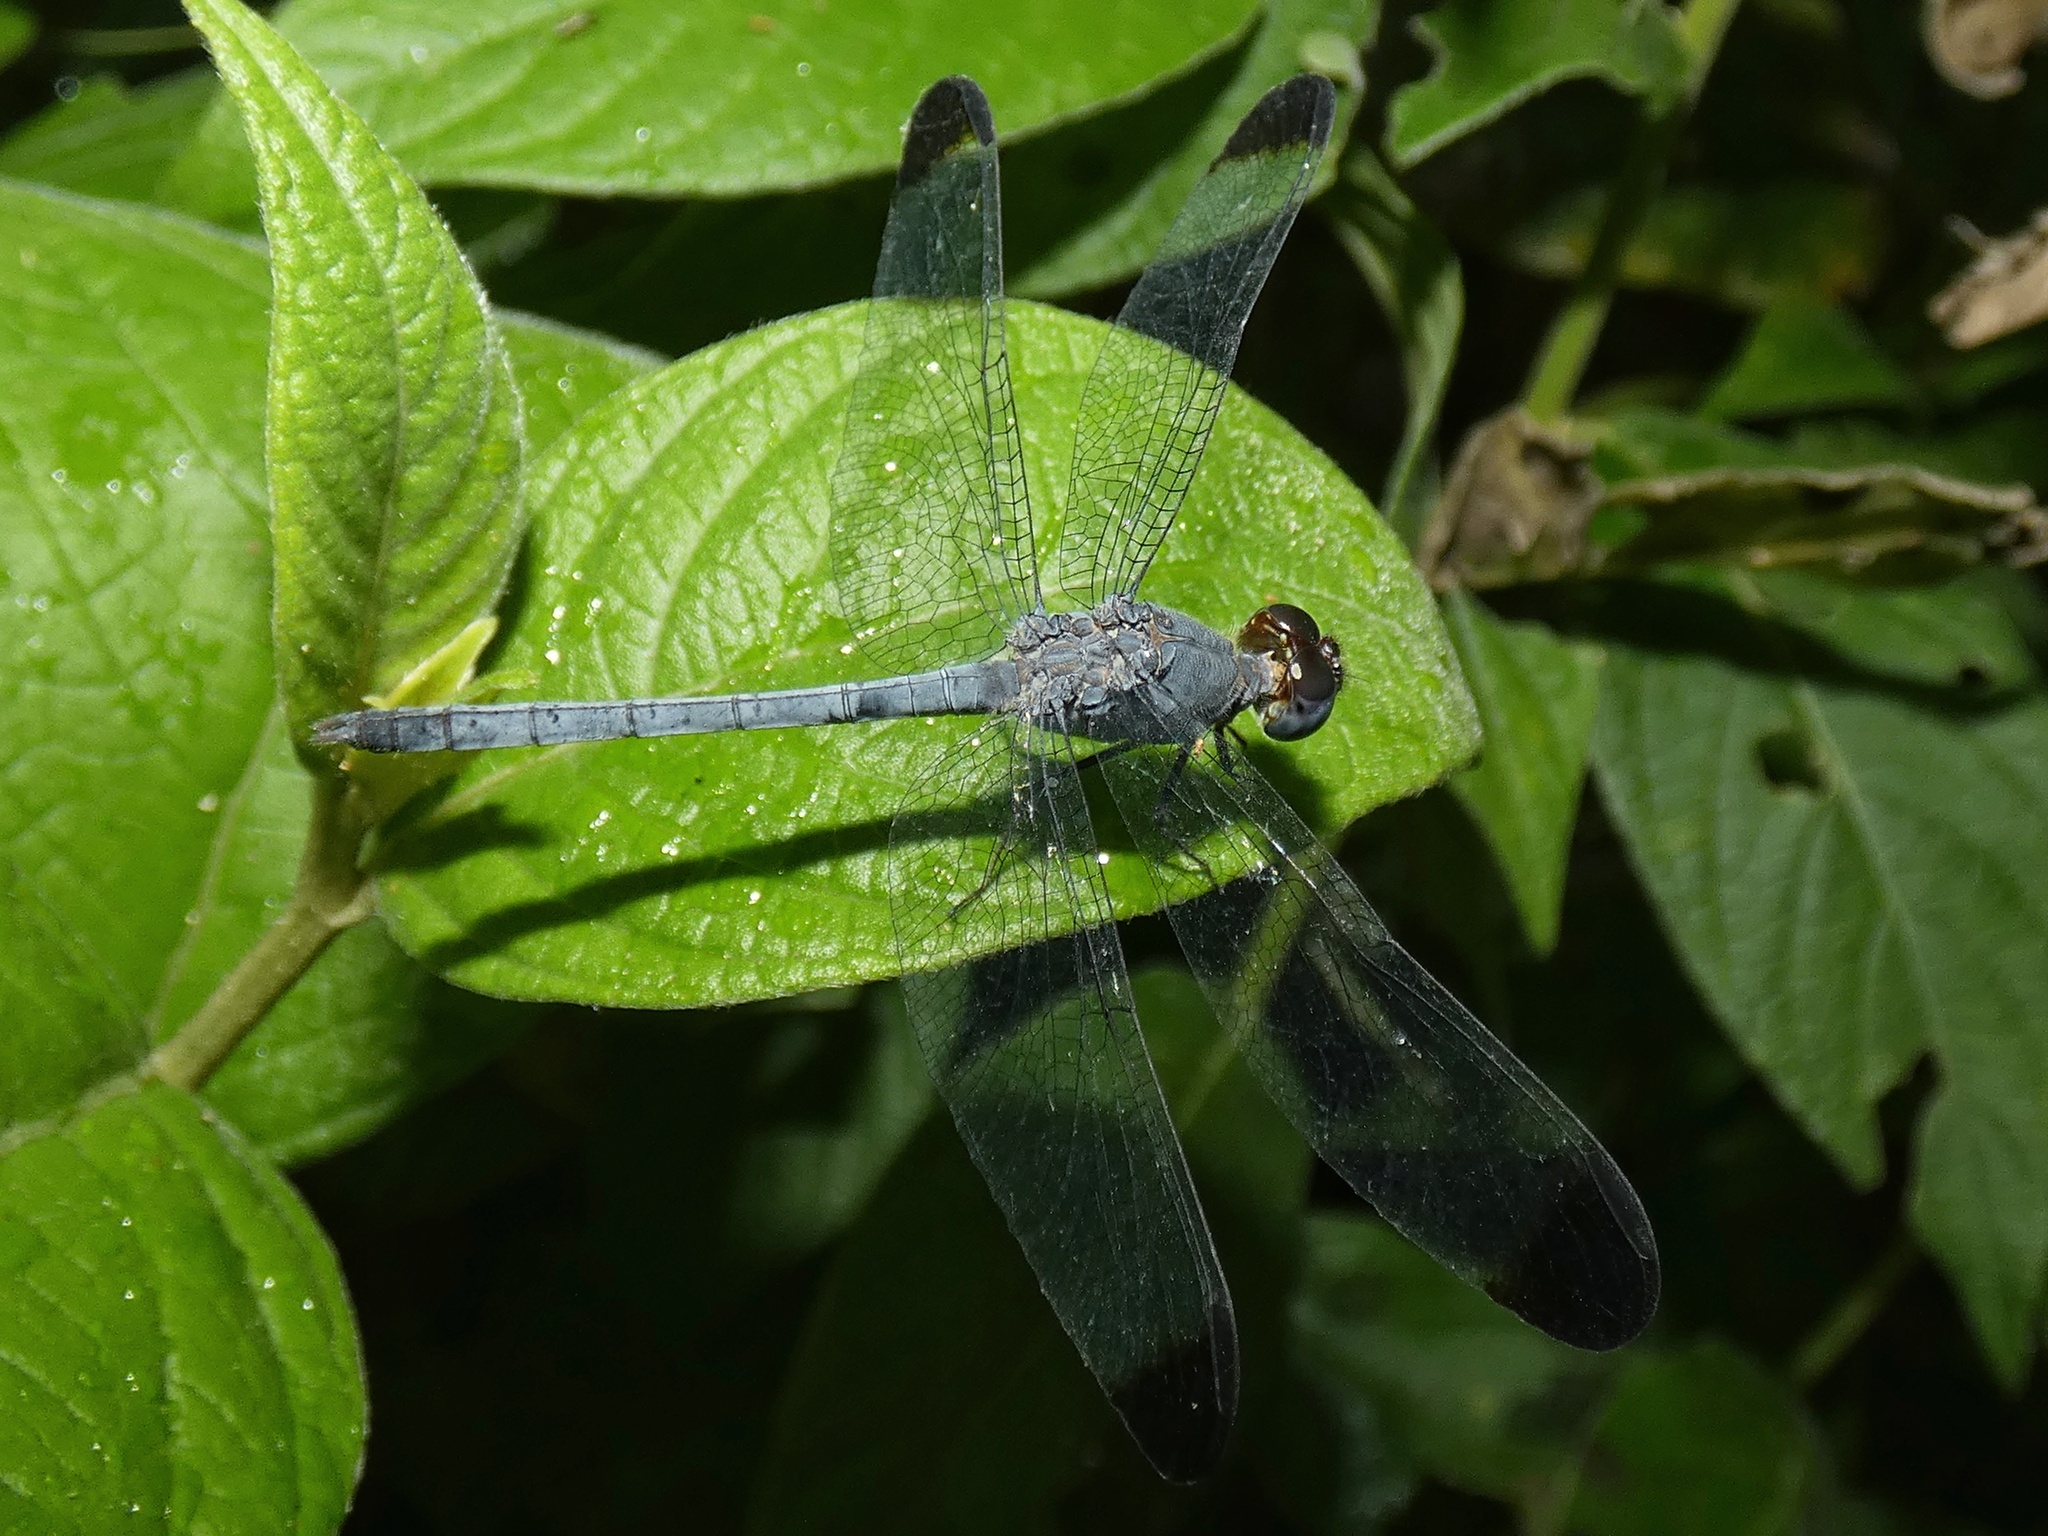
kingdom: Animalia
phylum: Arthropoda
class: Insecta
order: Odonata
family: Libellulidae
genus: Uracis
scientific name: Uracis imbuta
